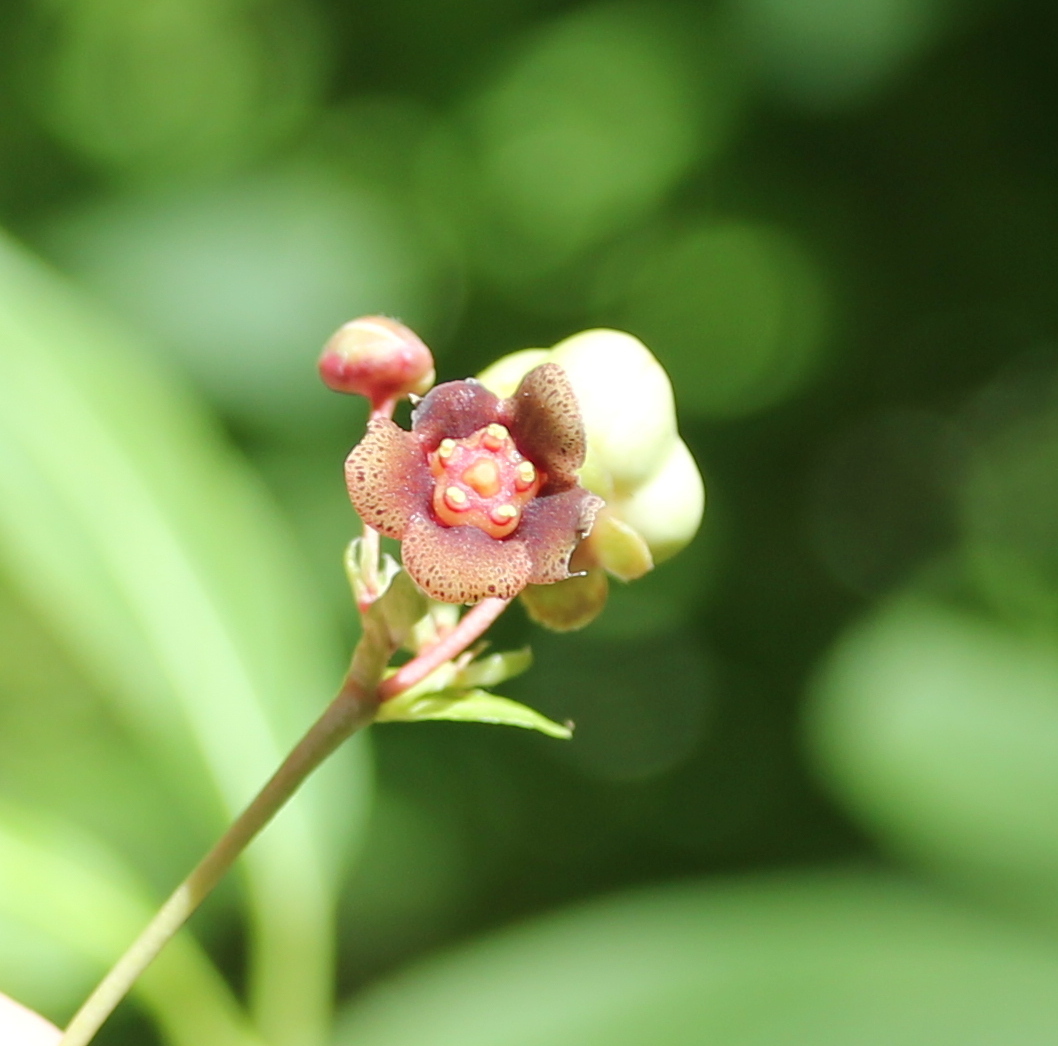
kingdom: Plantae
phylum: Tracheophyta
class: Magnoliopsida
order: Celastrales
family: Celastraceae
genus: Euonymus
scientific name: Euonymus occidentalis
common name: Western burningbush
